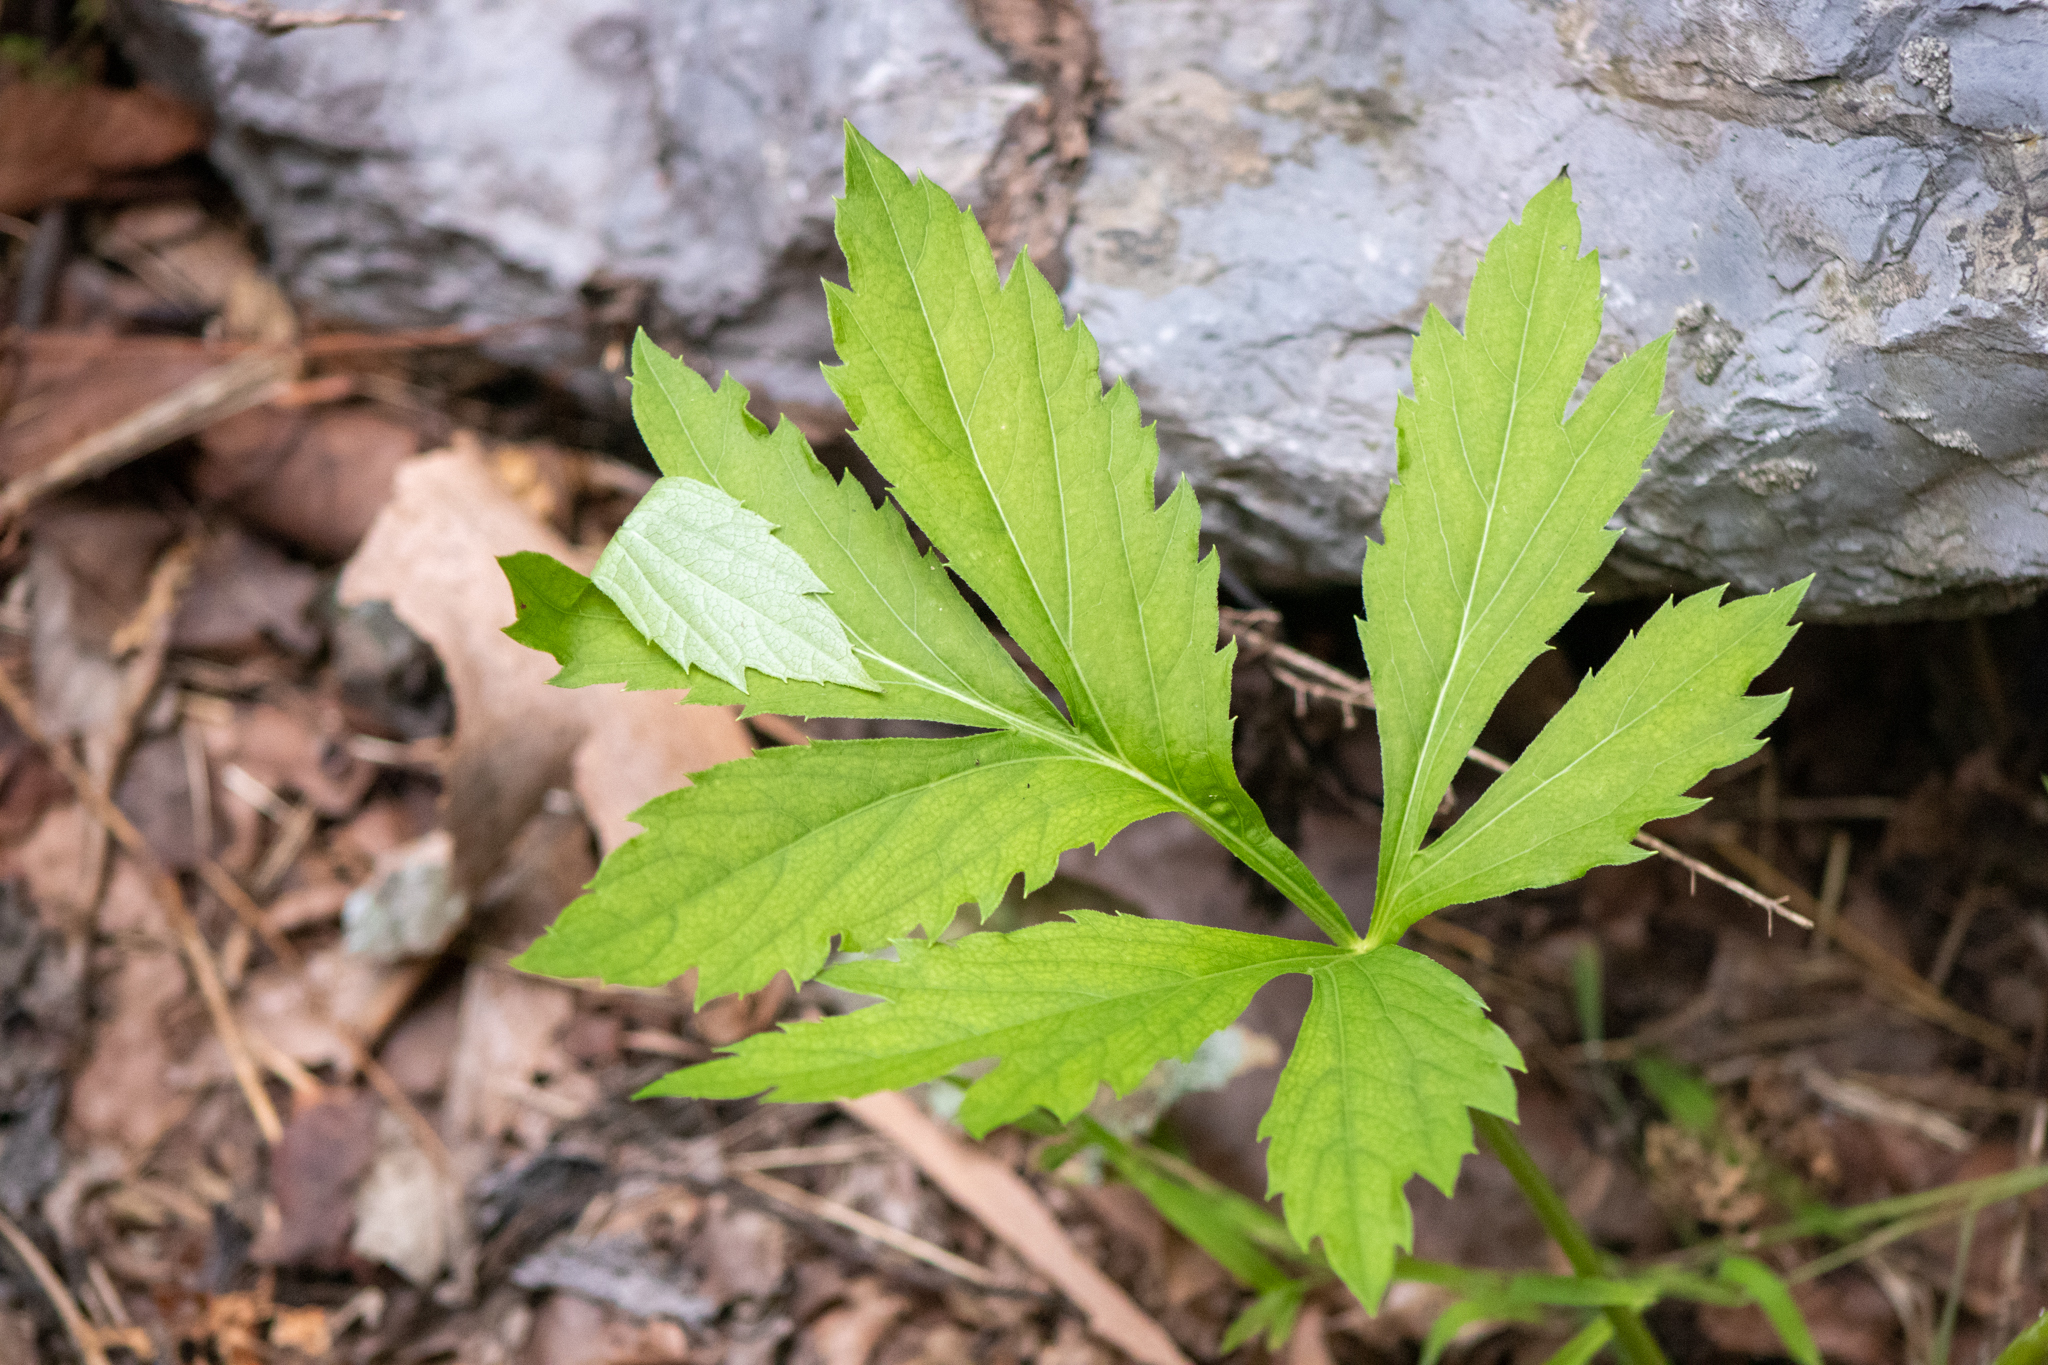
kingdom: Plantae
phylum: Tracheophyta
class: Magnoliopsida
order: Boraginales
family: Hydrophyllaceae
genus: Hydrophyllum
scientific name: Hydrophyllum virginianum
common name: Virginia waterleaf
